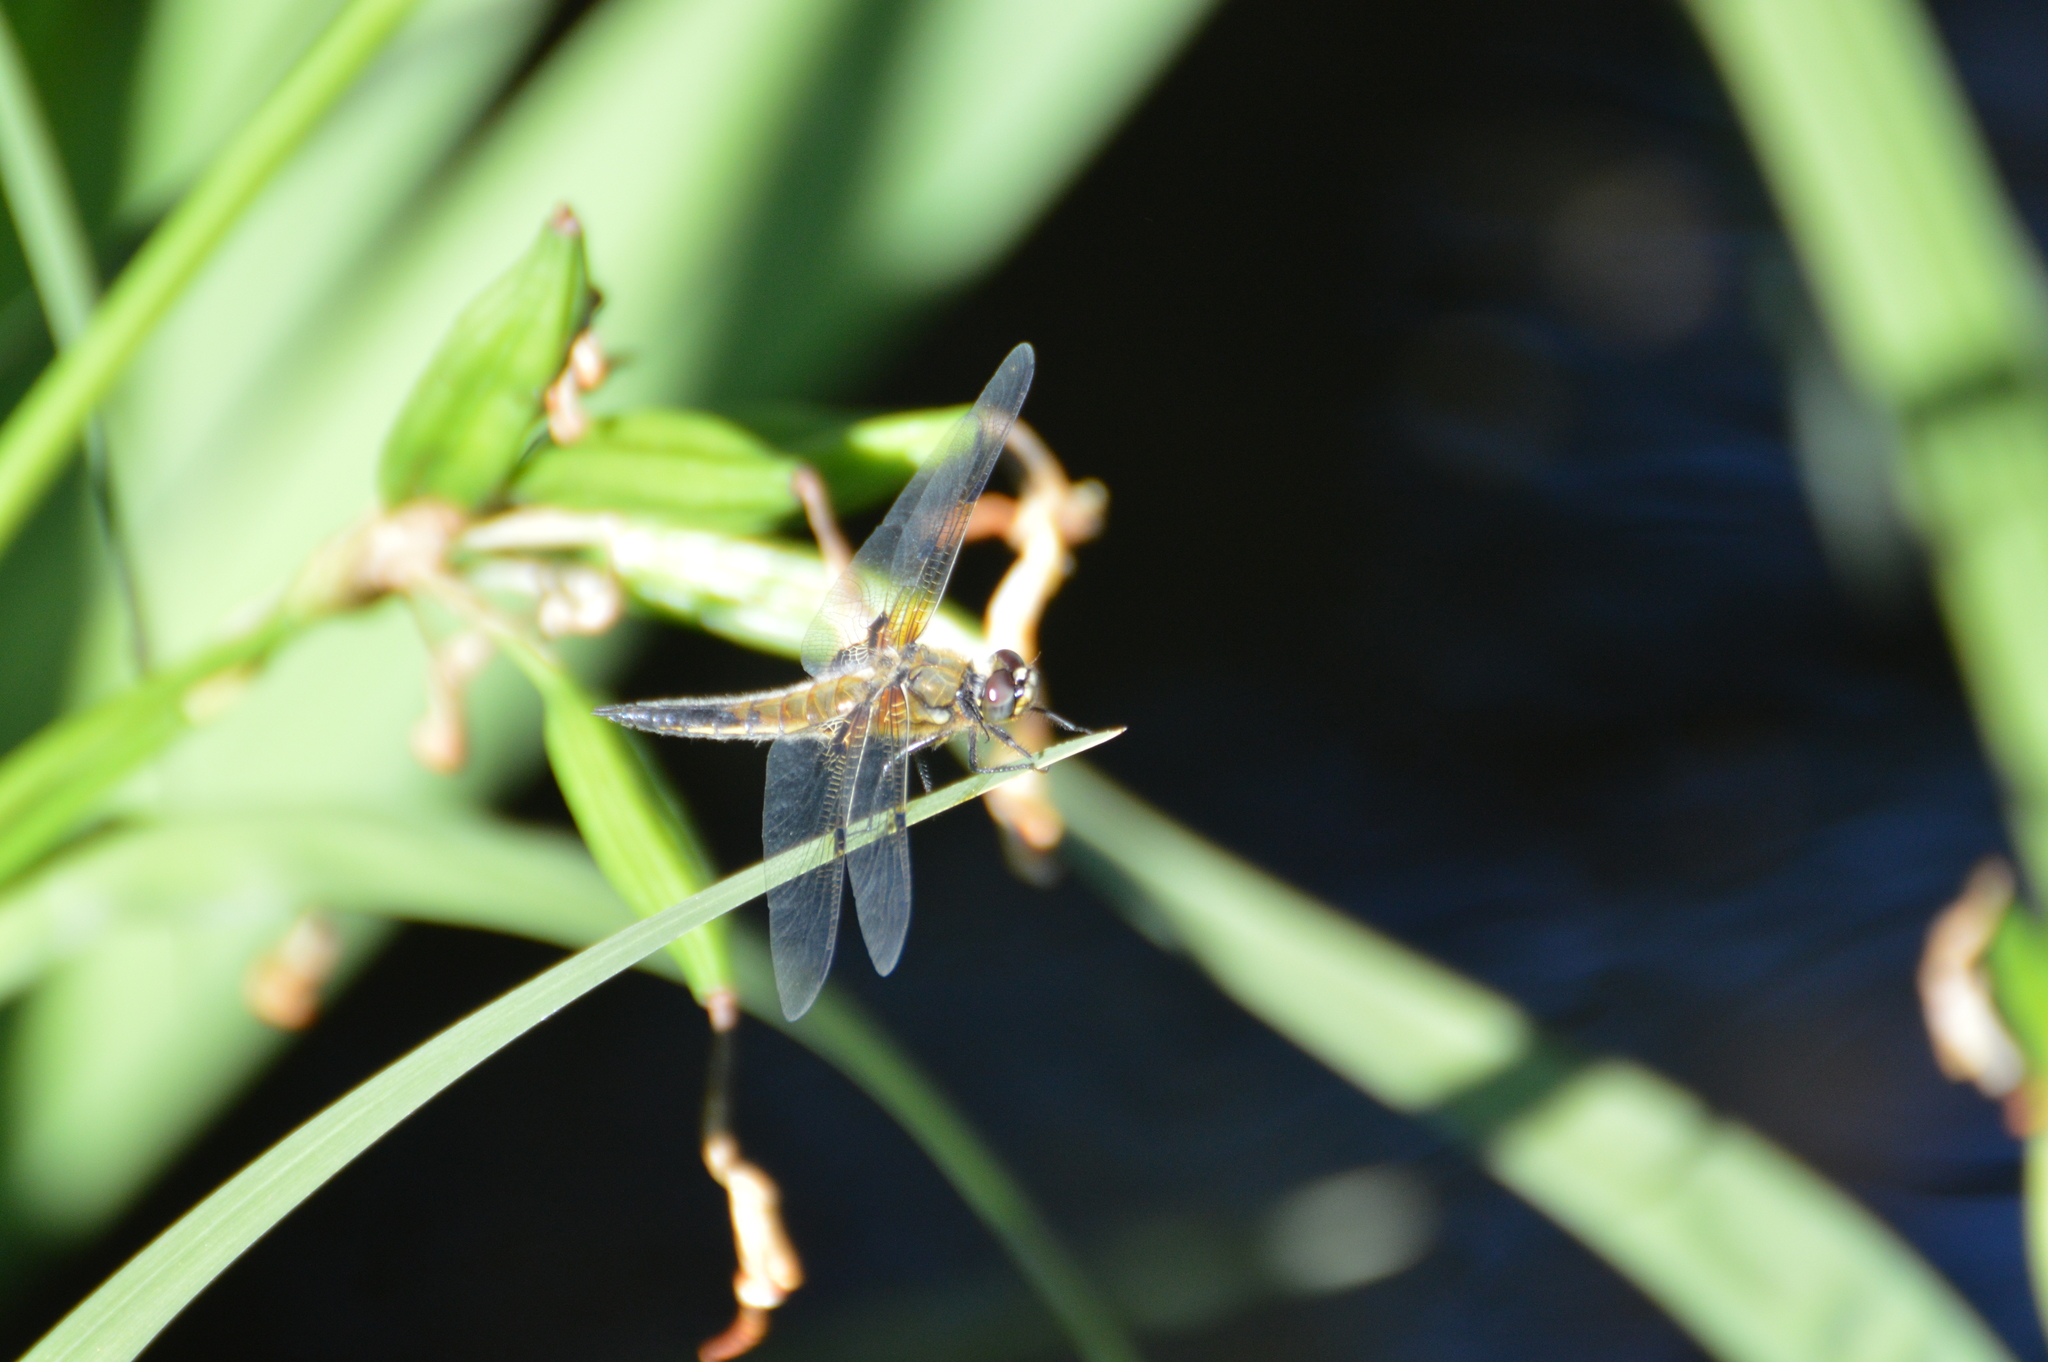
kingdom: Animalia
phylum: Arthropoda
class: Insecta
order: Odonata
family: Libellulidae
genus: Libellula
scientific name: Libellula quadrimaculata
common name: Four-spotted chaser
